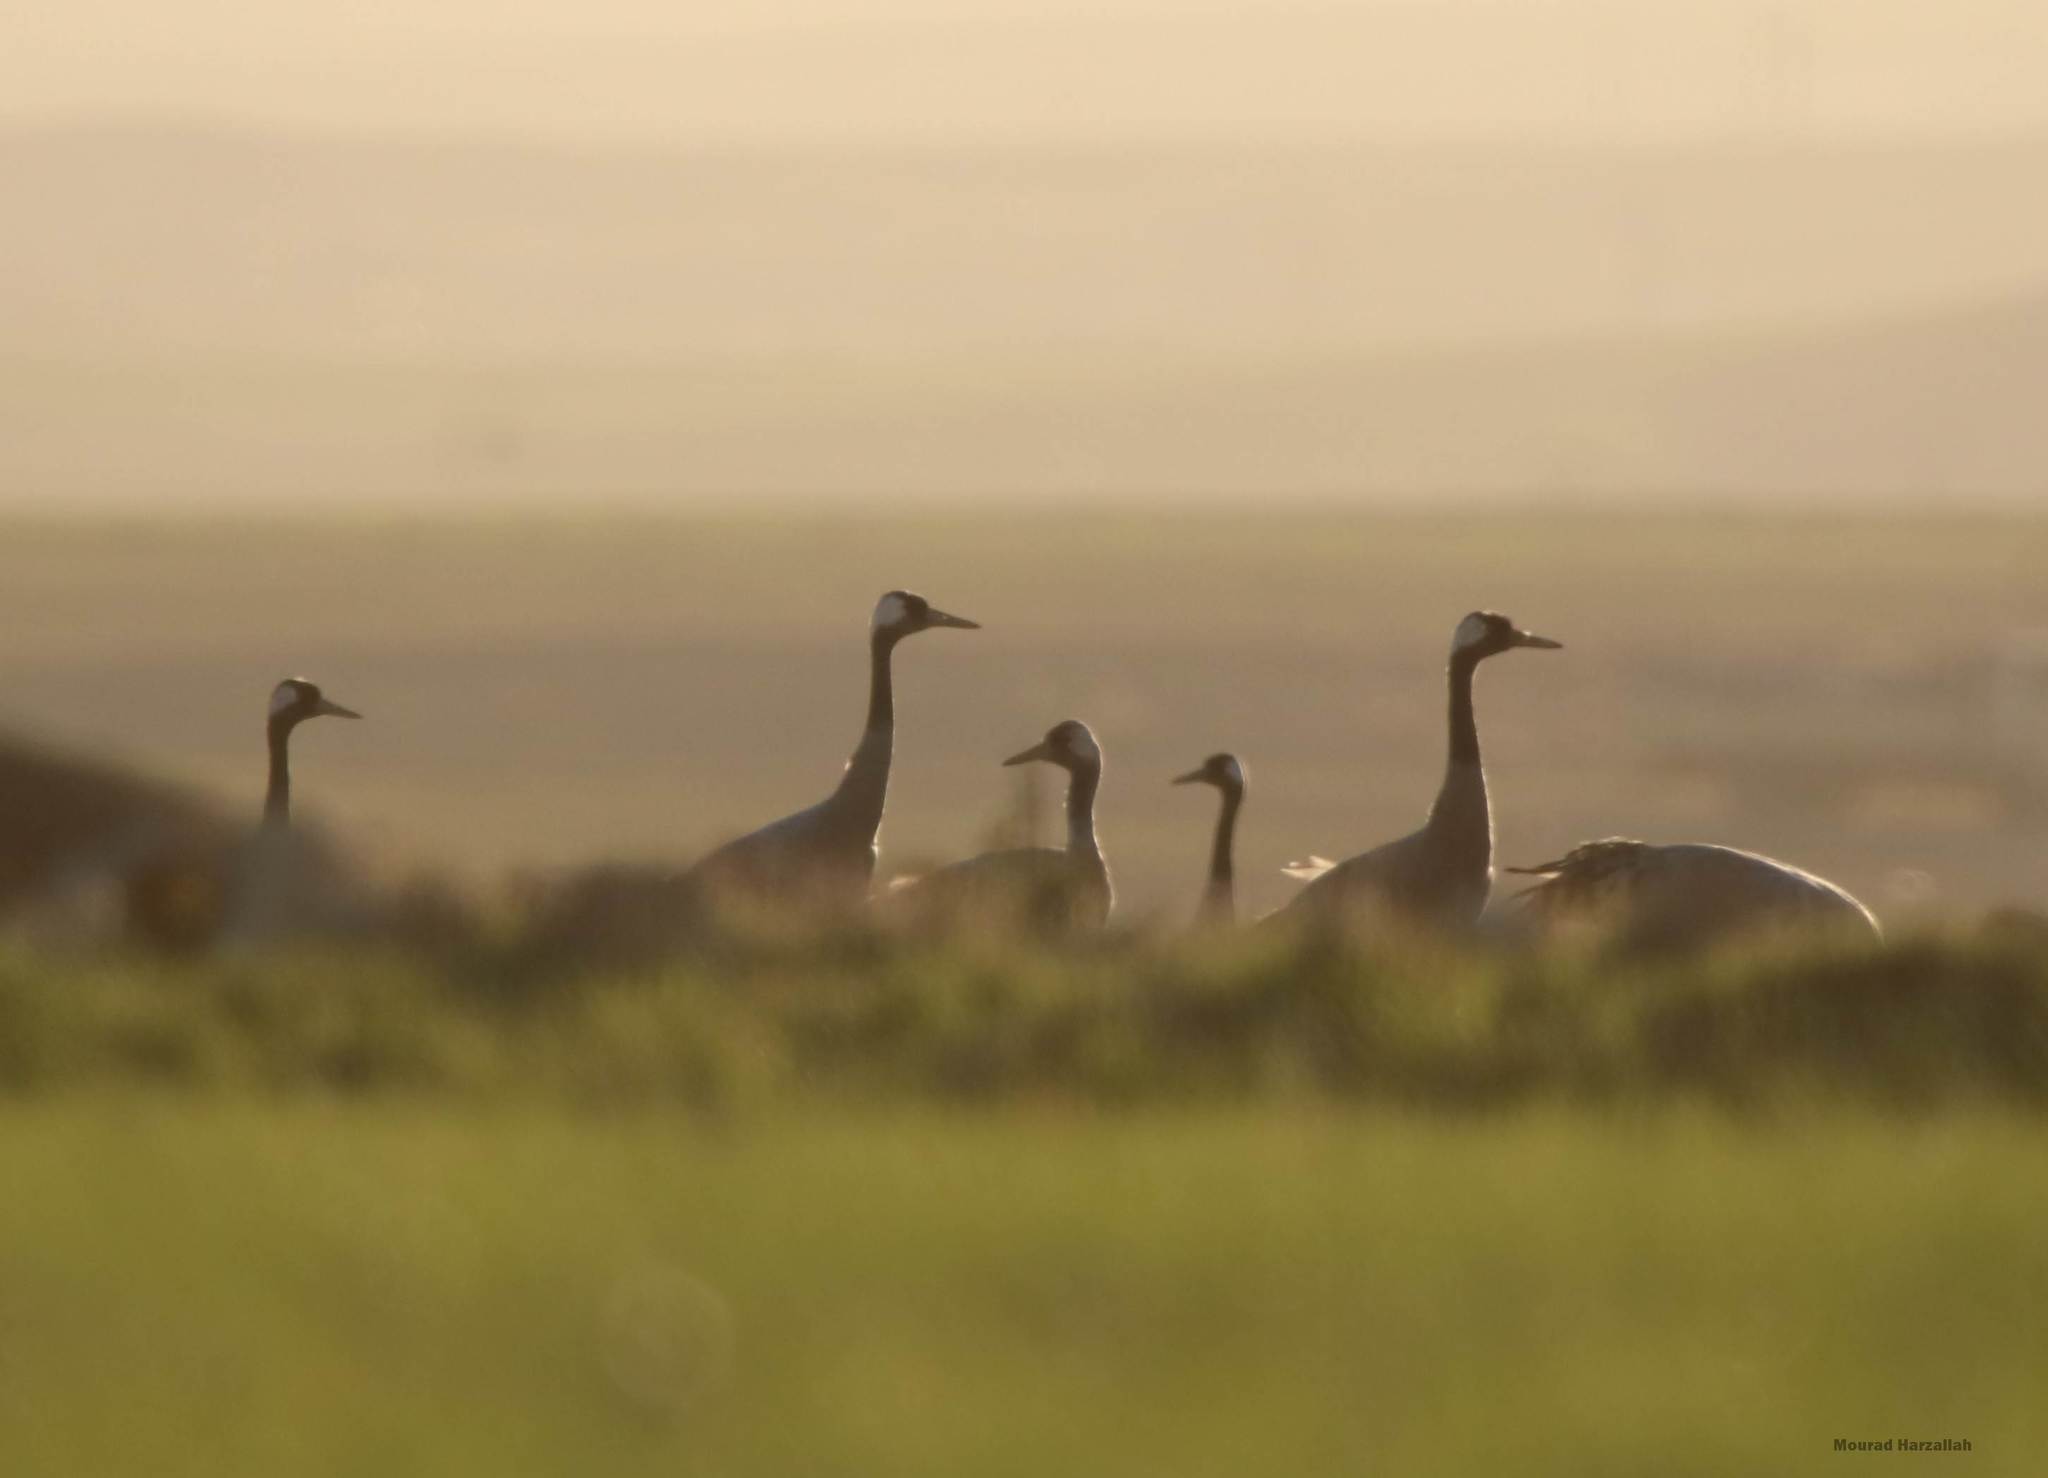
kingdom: Animalia
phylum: Chordata
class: Aves
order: Gruiformes
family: Gruidae
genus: Grus
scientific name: Grus grus
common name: Common crane
